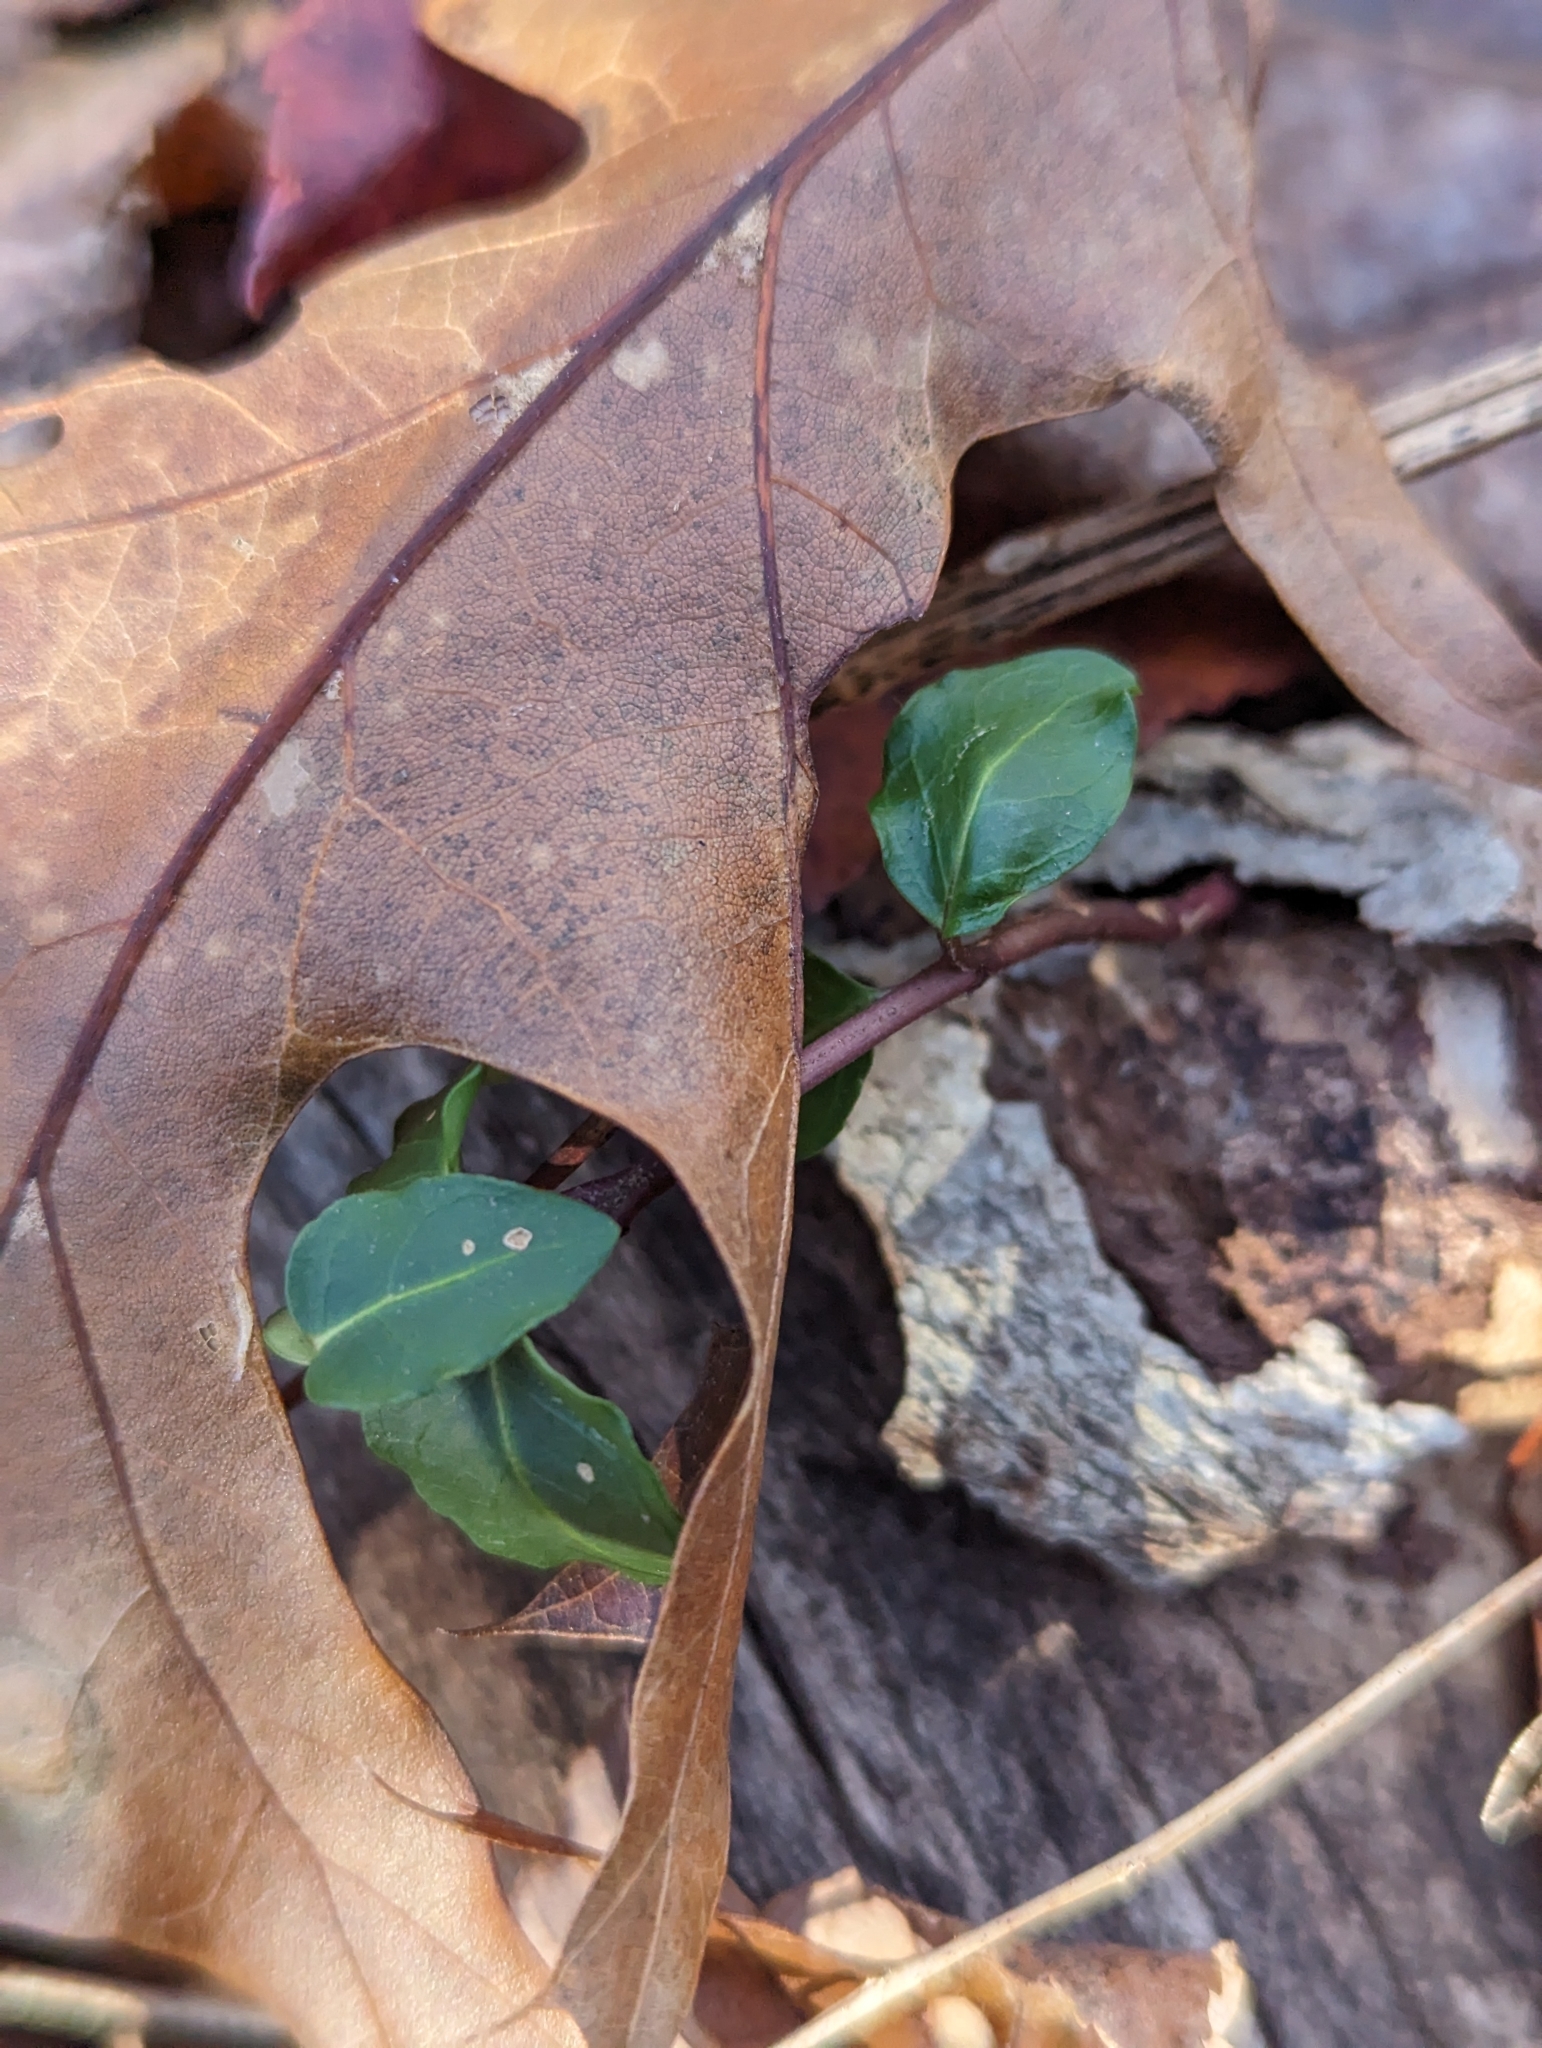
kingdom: Plantae
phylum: Tracheophyta
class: Magnoliopsida
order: Gentianales
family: Rubiaceae
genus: Mitchella
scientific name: Mitchella repens
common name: Partridge-berry
